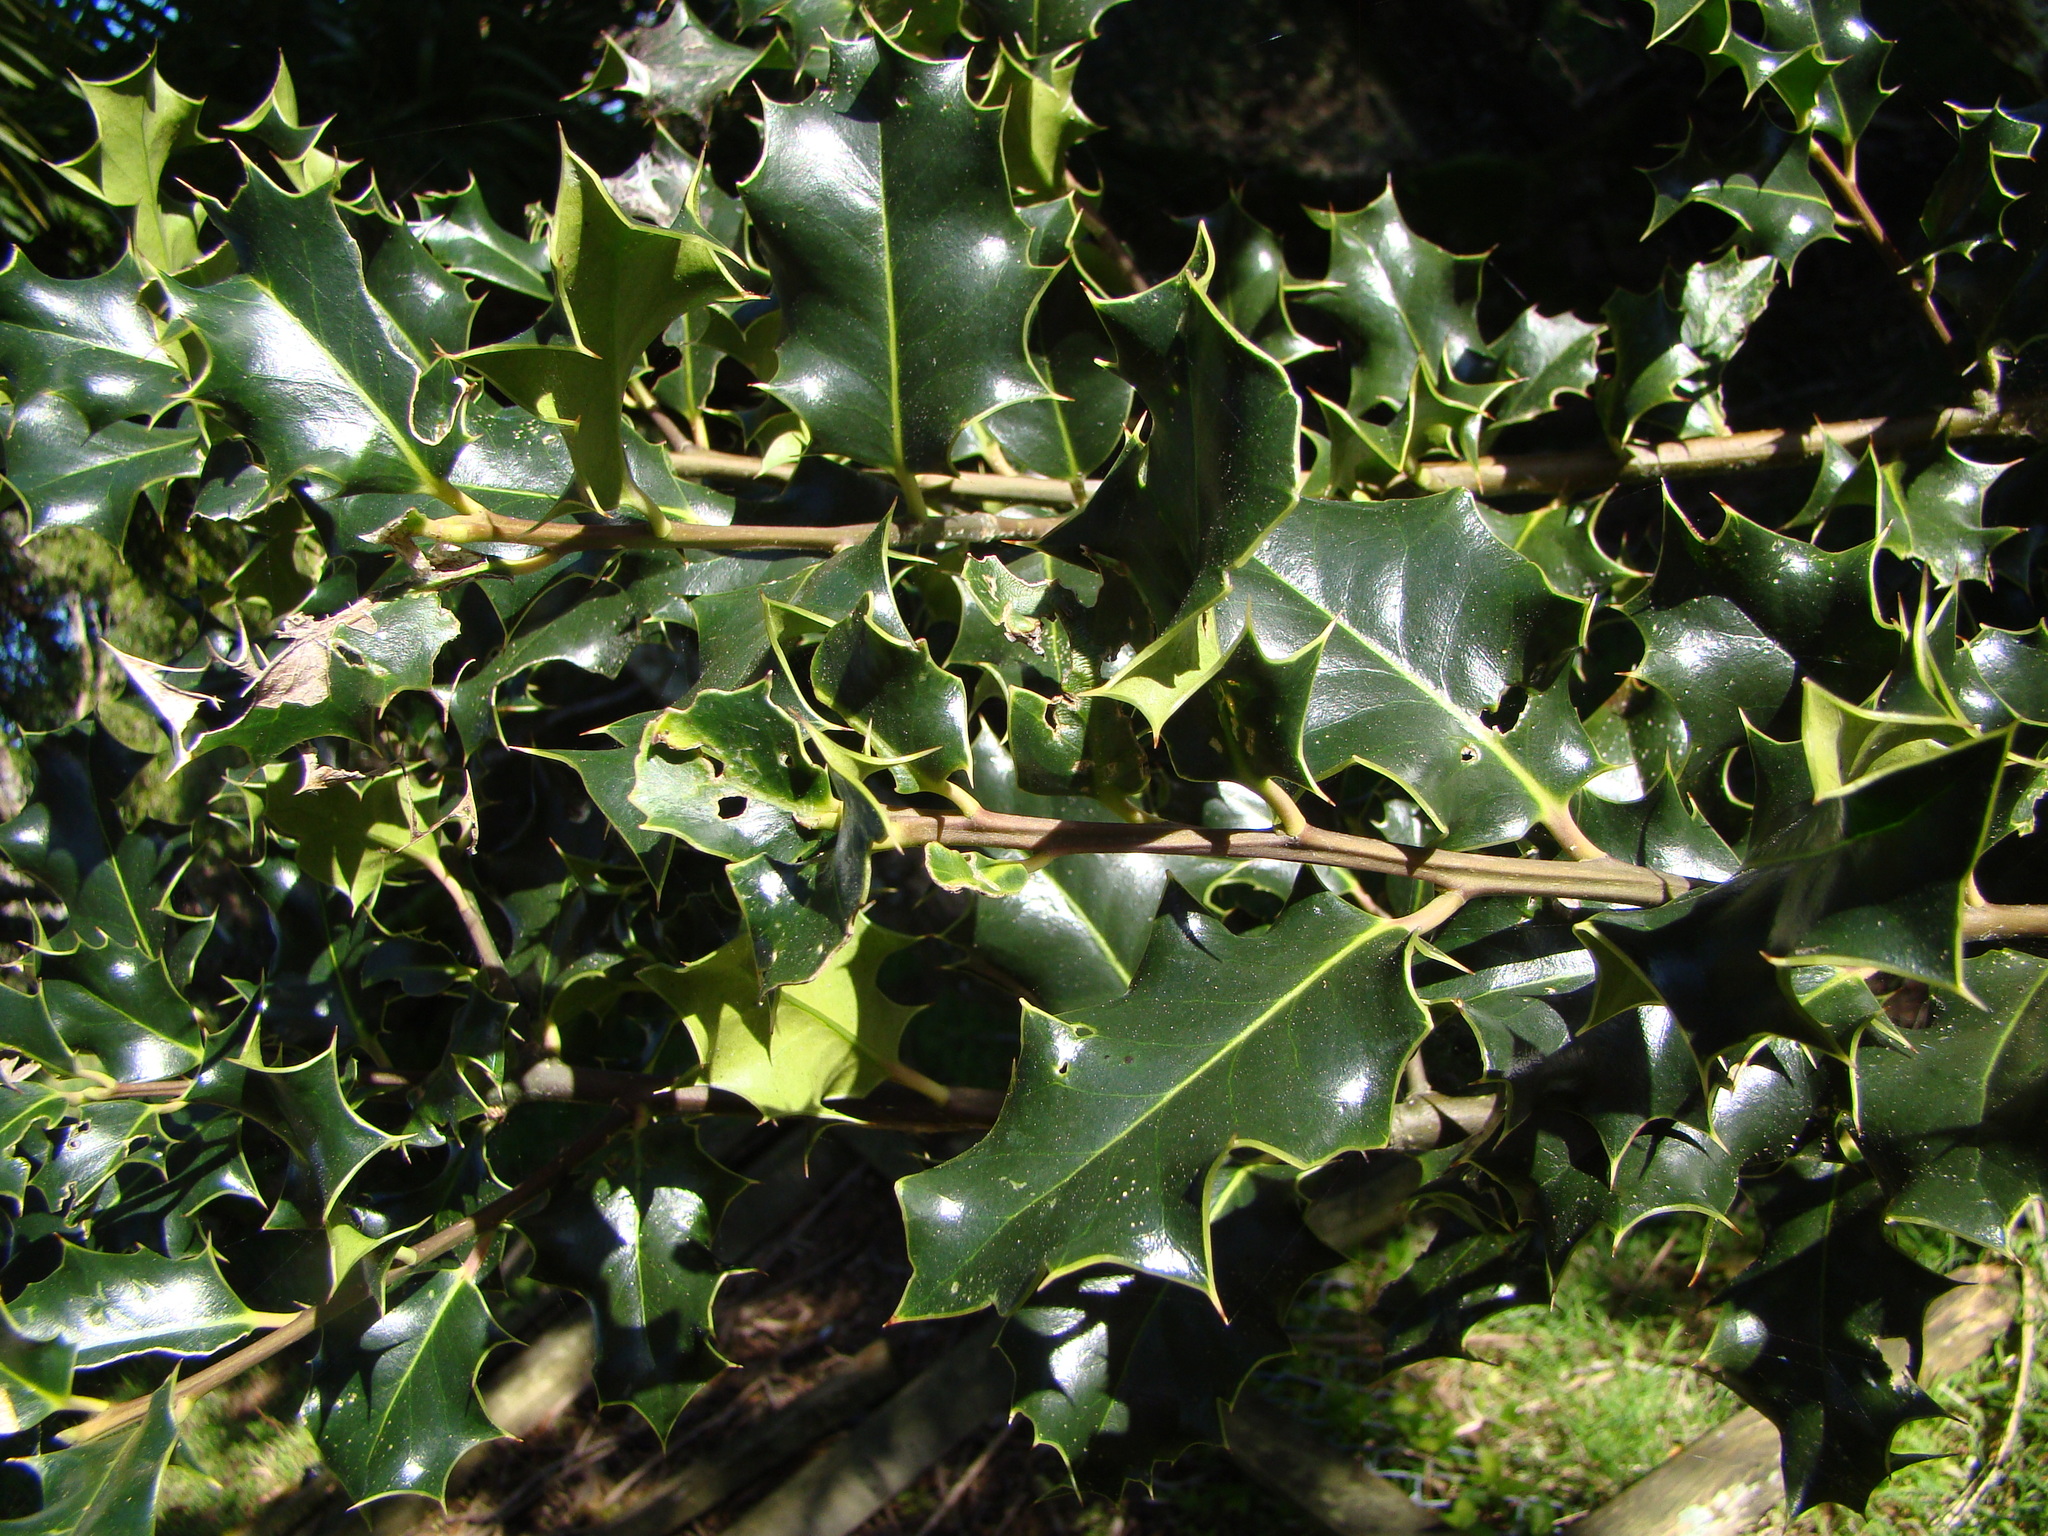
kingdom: Plantae
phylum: Tracheophyta
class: Magnoliopsida
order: Aquifoliales
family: Aquifoliaceae
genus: Ilex
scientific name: Ilex aquifolium
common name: English holly
